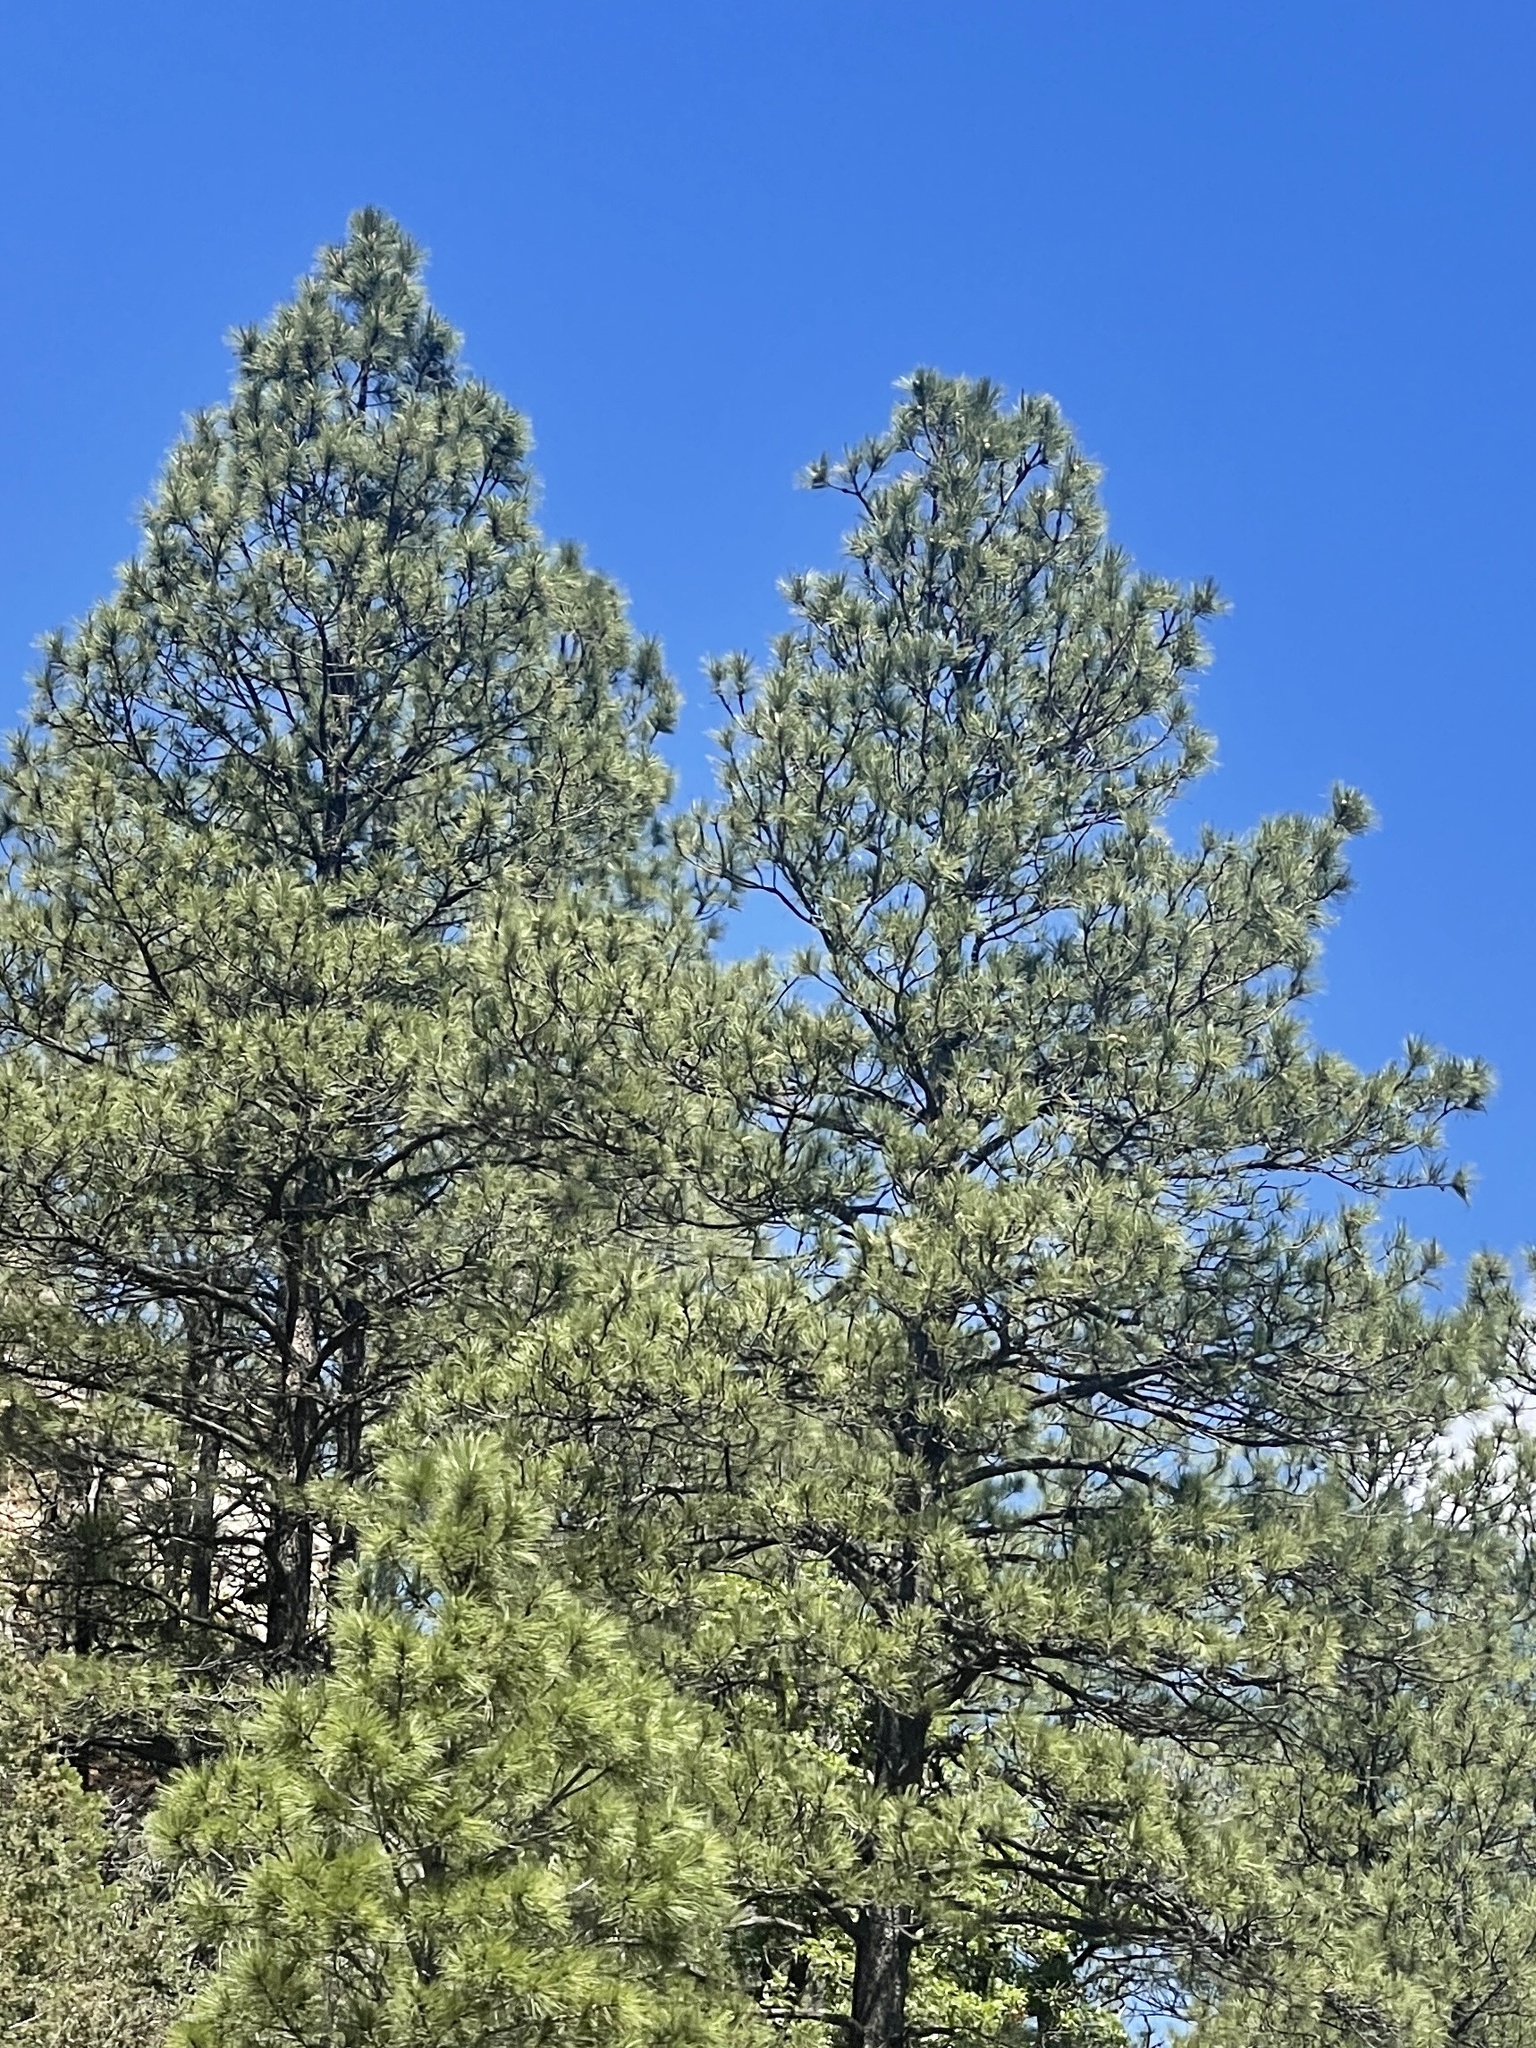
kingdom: Plantae
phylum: Tracheophyta
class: Pinopsida
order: Pinales
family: Pinaceae
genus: Pinus
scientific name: Pinus ponderosa
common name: Western yellow-pine
